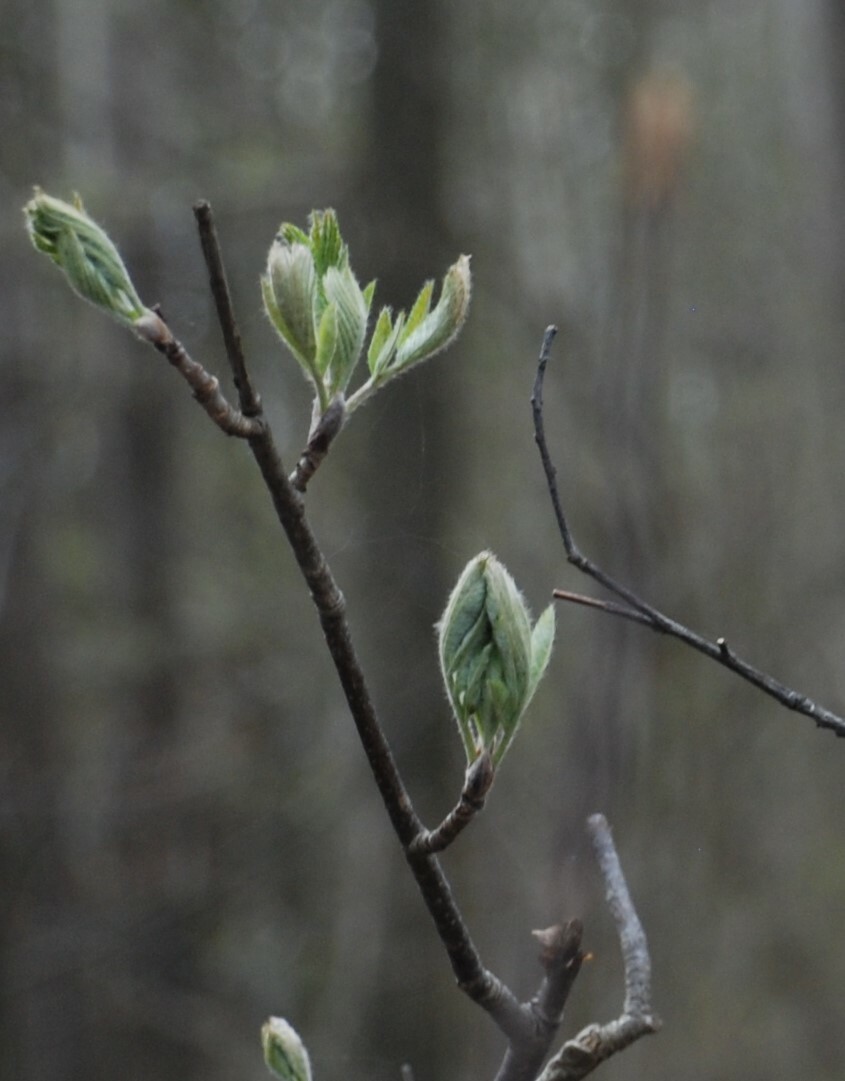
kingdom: Plantae
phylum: Tracheophyta
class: Magnoliopsida
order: Rosales
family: Rosaceae
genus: Sorbus
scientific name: Sorbus aucuparia
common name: Rowan
